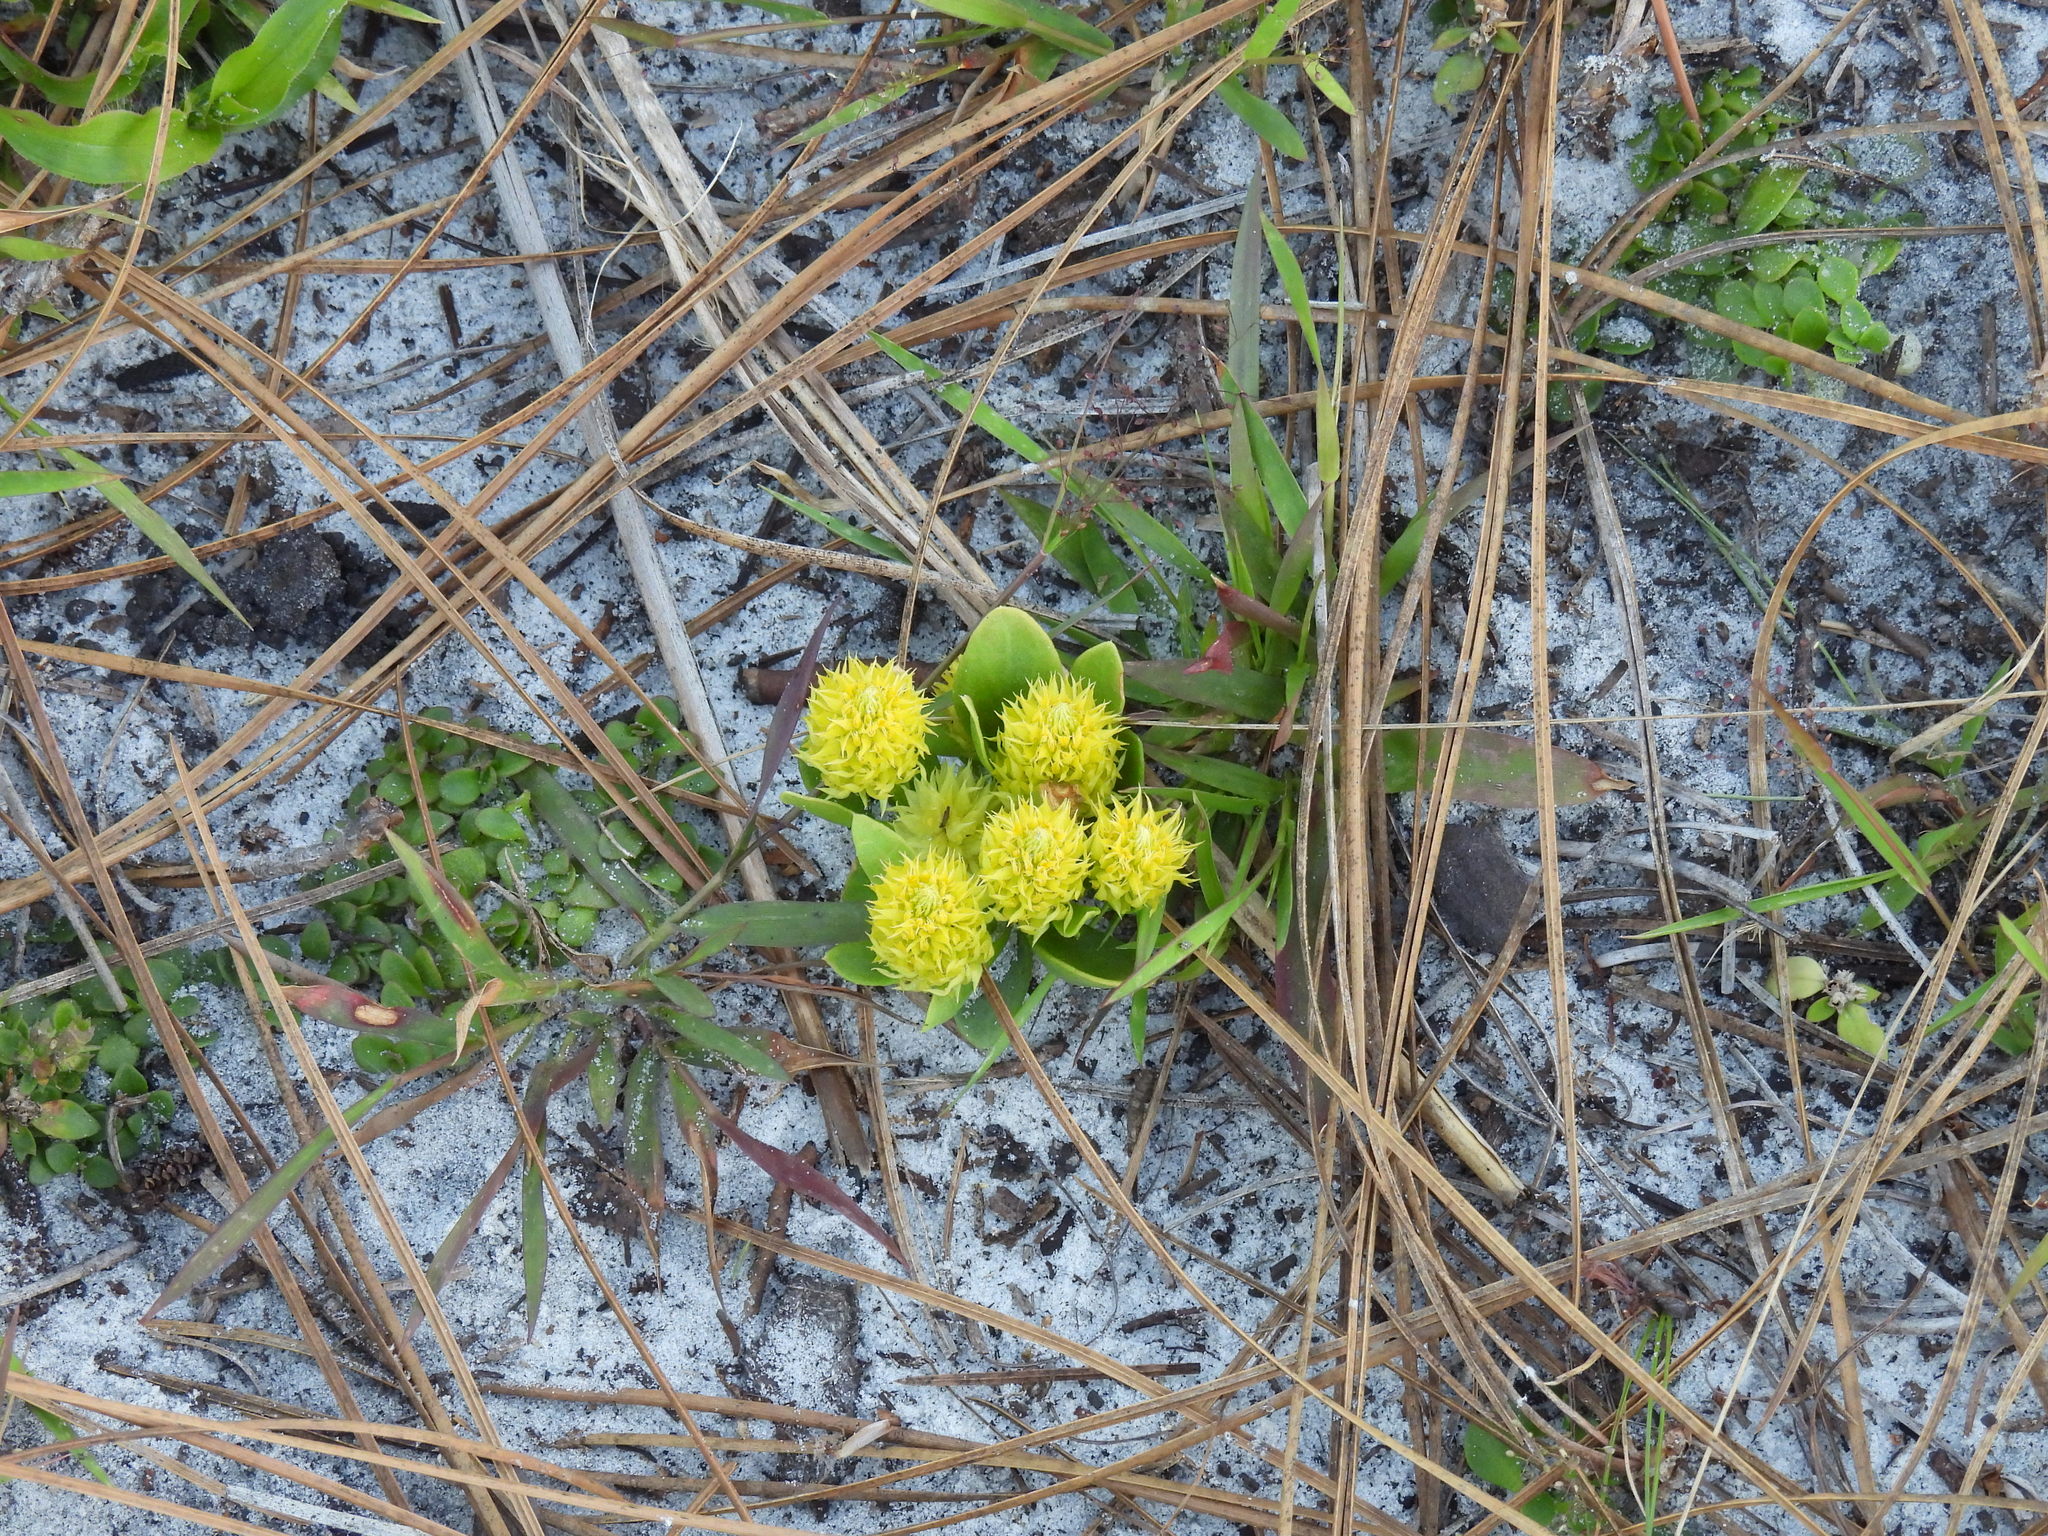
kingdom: Plantae
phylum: Tracheophyta
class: Magnoliopsida
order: Fabales
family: Polygalaceae
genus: Polygala
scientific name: Polygala nana
